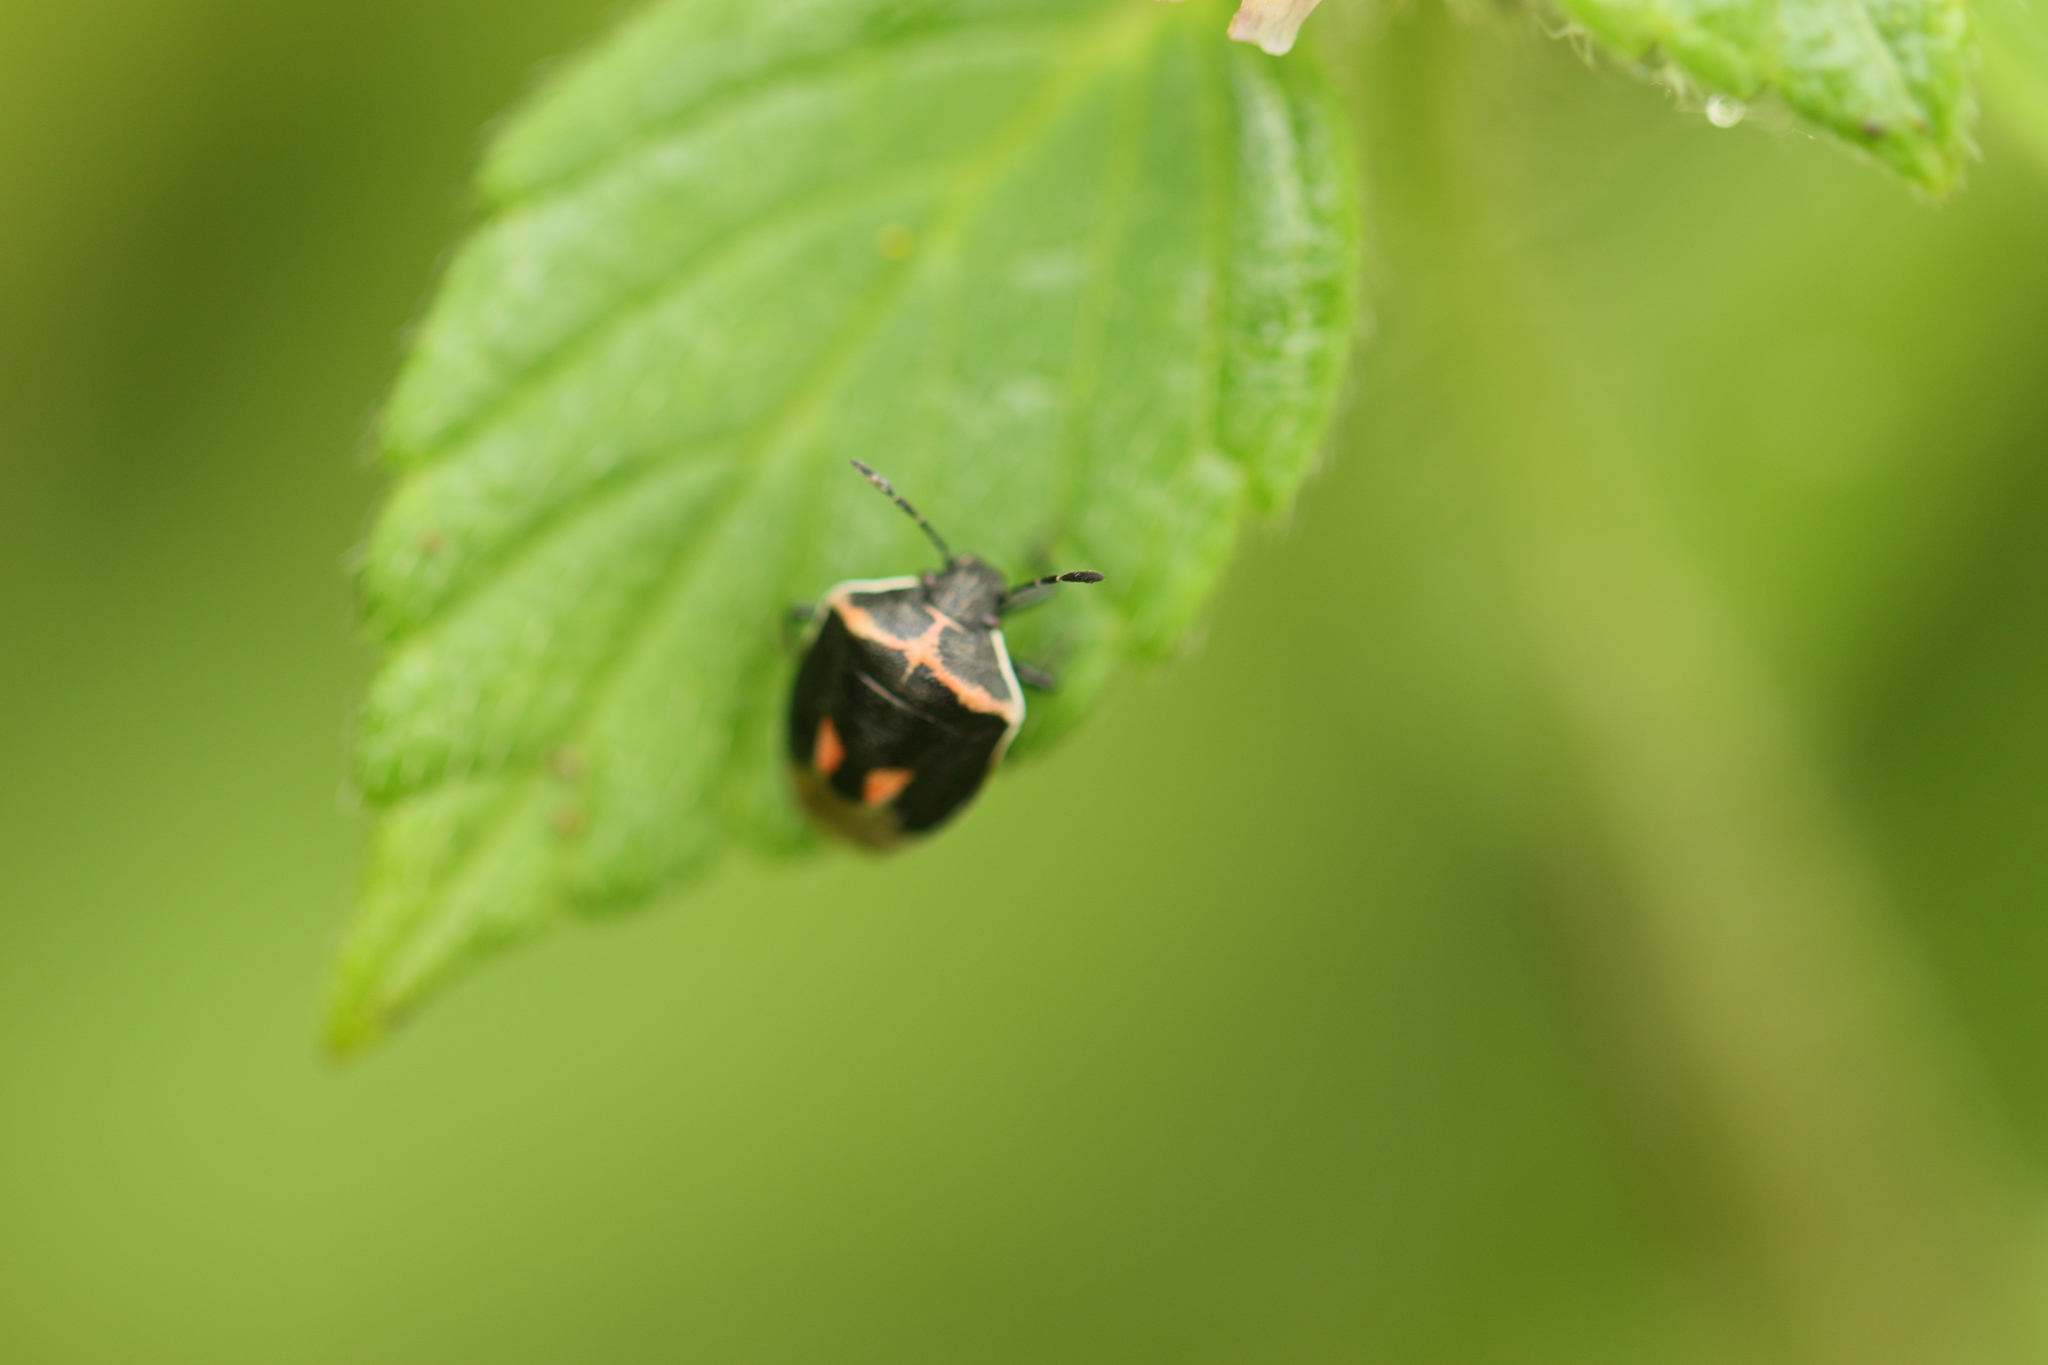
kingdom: Animalia
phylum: Arthropoda
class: Insecta
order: Hemiptera
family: Pentatomidae
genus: Cosmopepla
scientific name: Cosmopepla lintneriana
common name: Twice-stabbed stink bug
